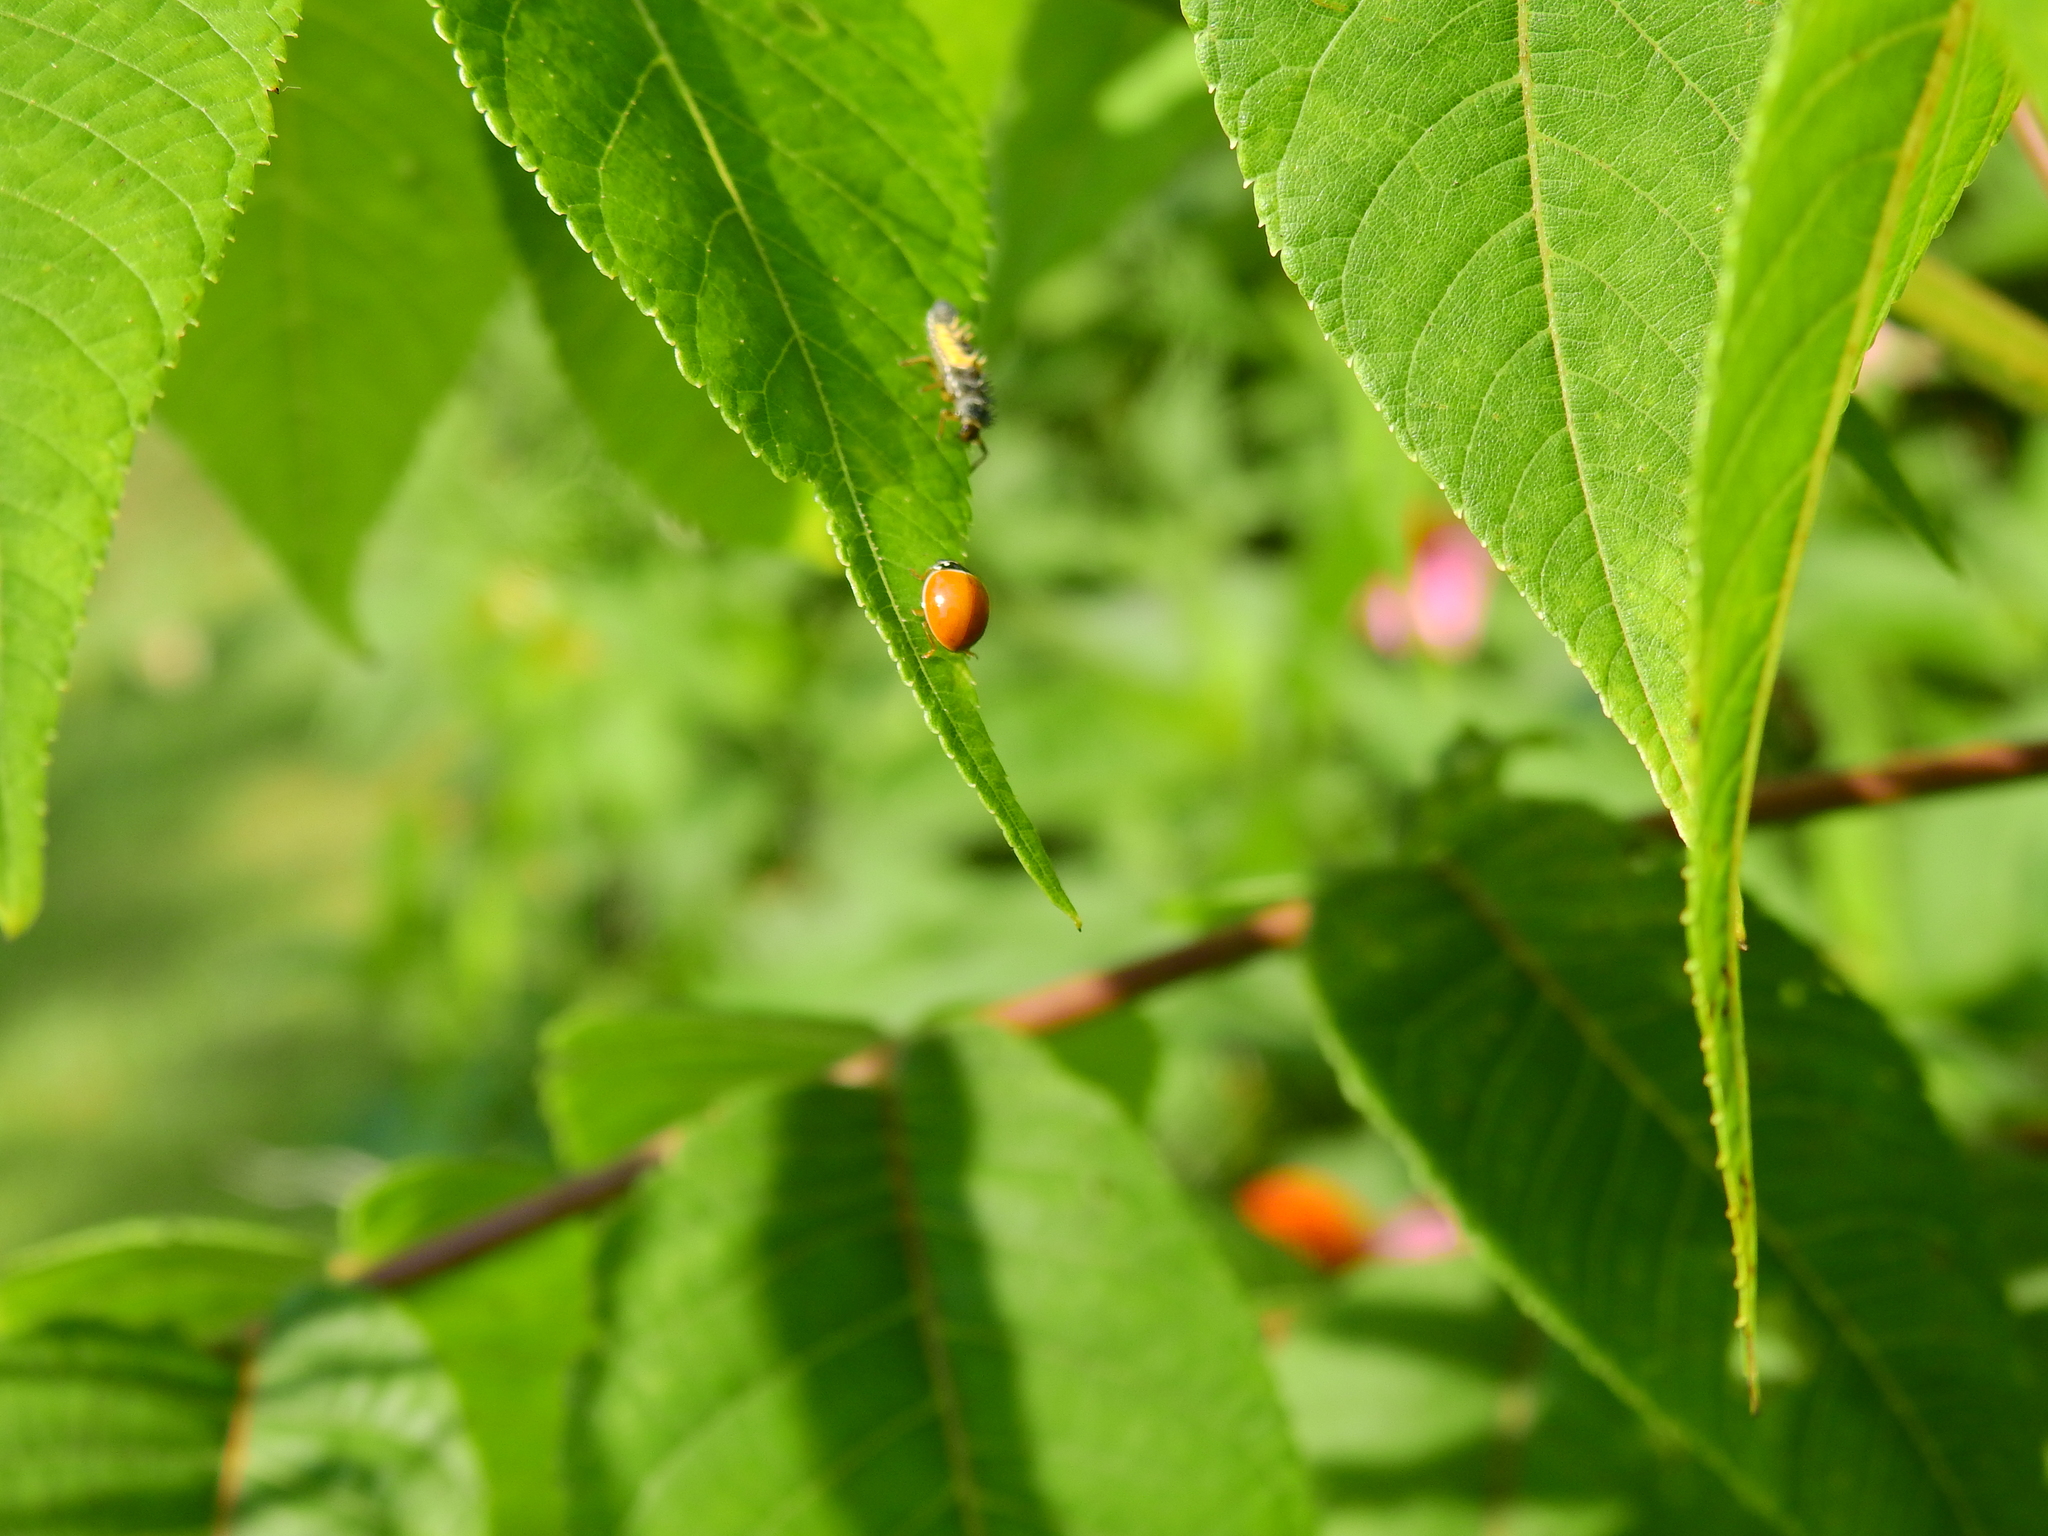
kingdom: Animalia
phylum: Arthropoda
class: Insecta
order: Coleoptera
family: Coccinellidae
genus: Cycloneda
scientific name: Cycloneda munda
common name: Polished lady beetle
